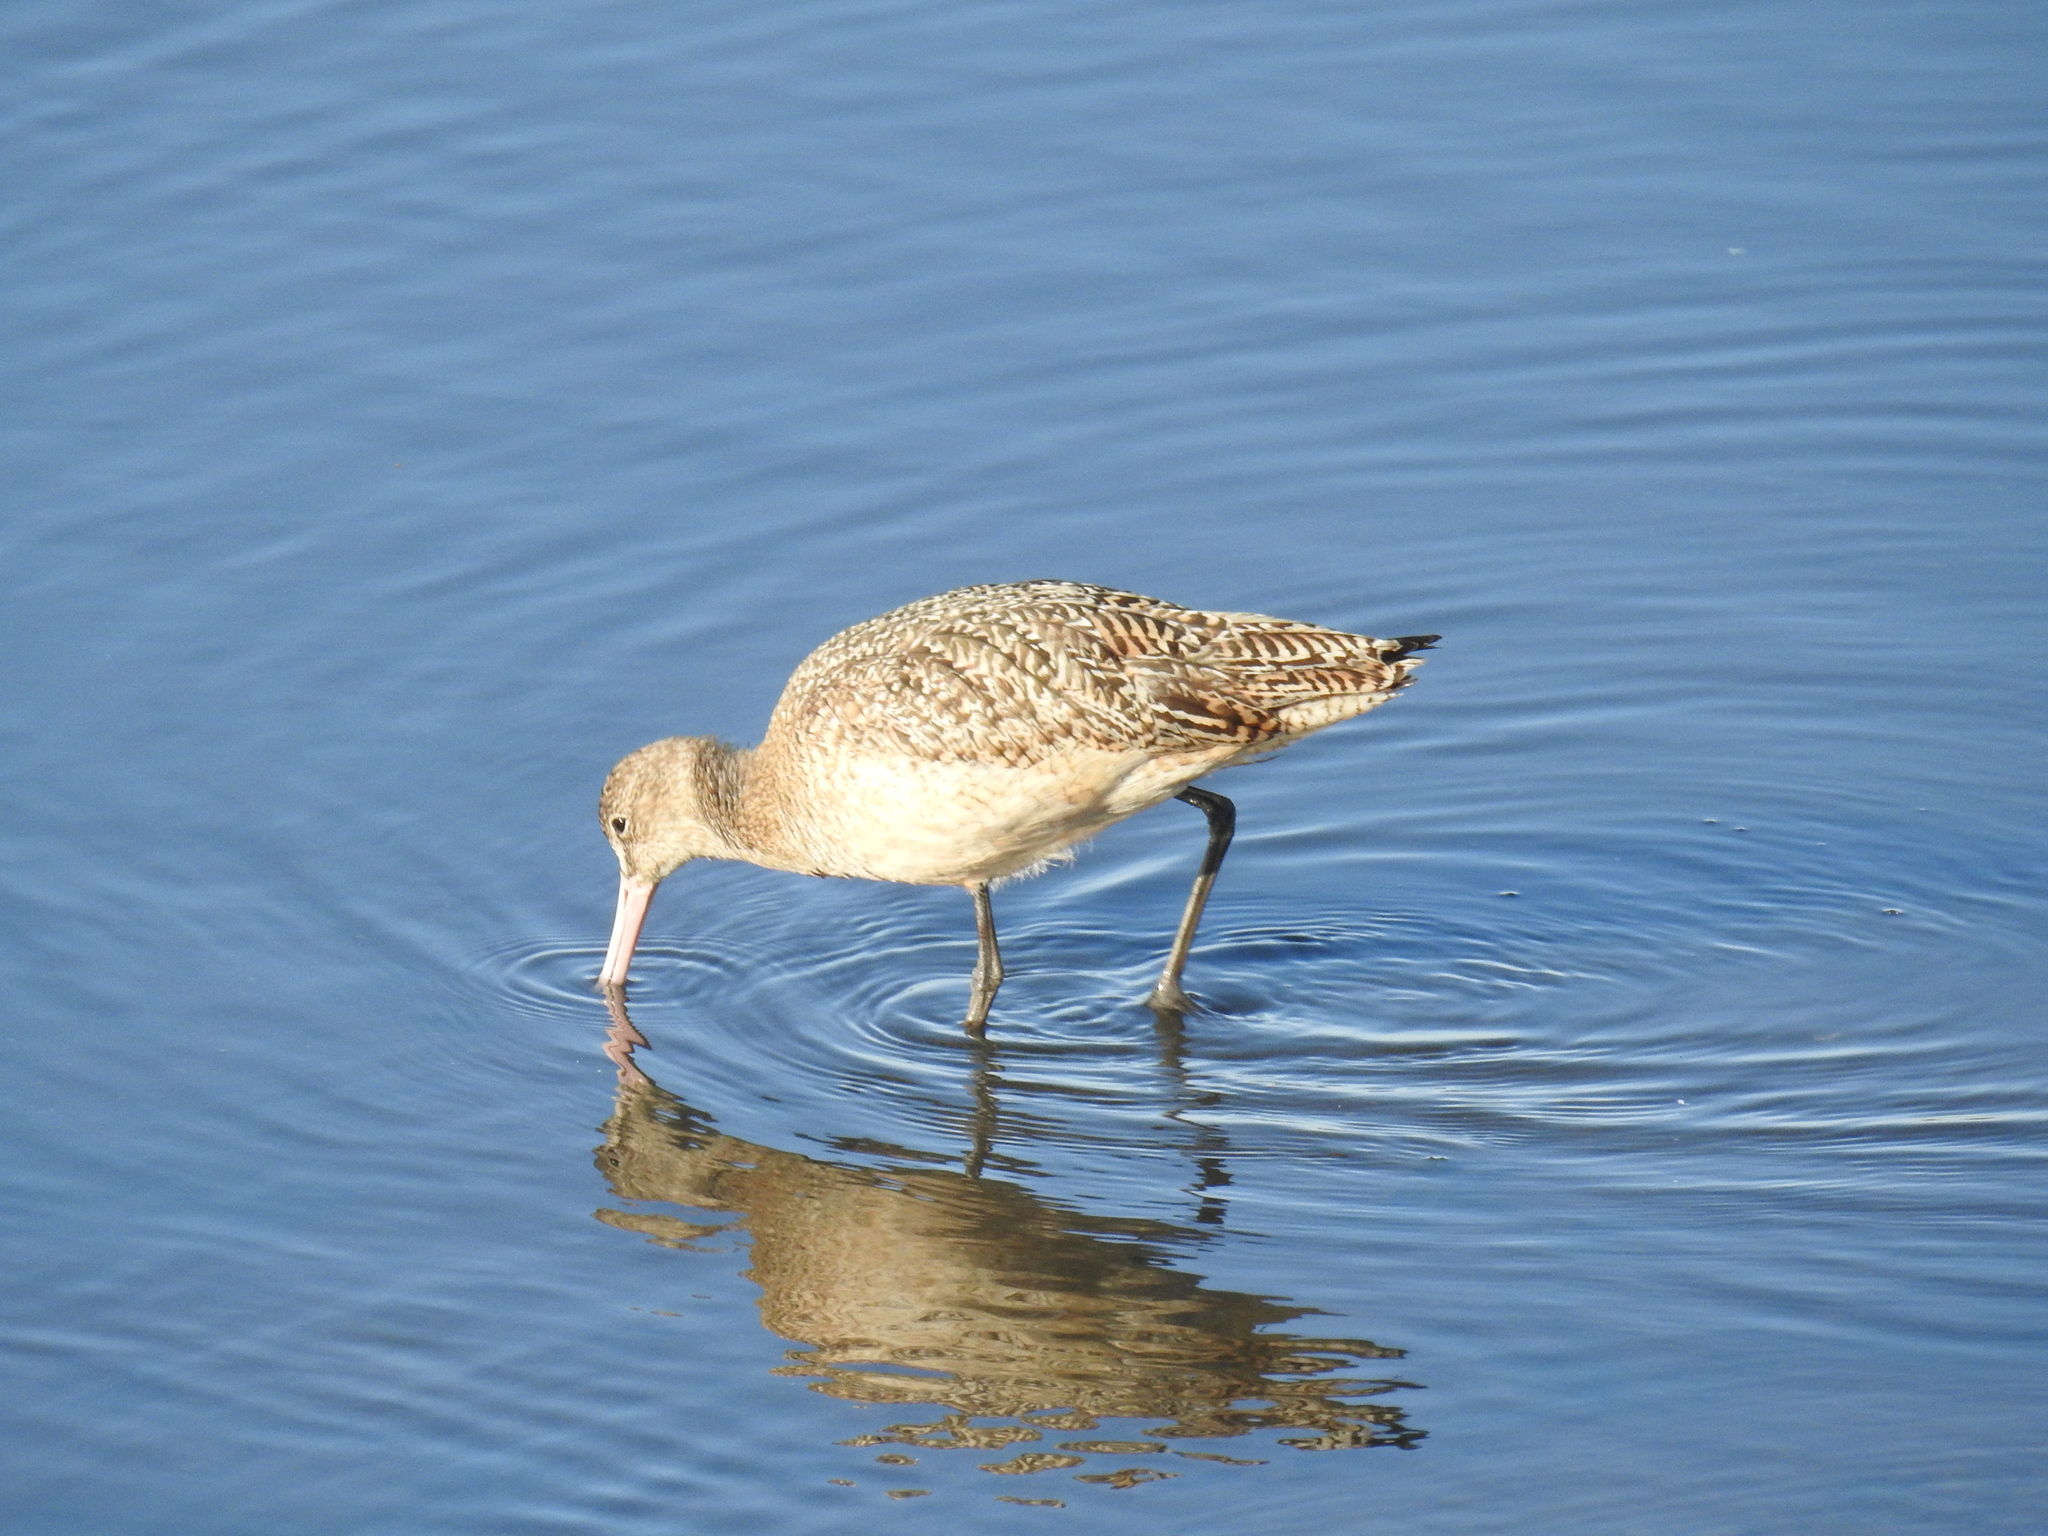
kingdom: Animalia
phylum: Chordata
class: Aves
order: Charadriiformes
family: Scolopacidae
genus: Limosa
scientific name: Limosa fedoa
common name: Marbled godwit
